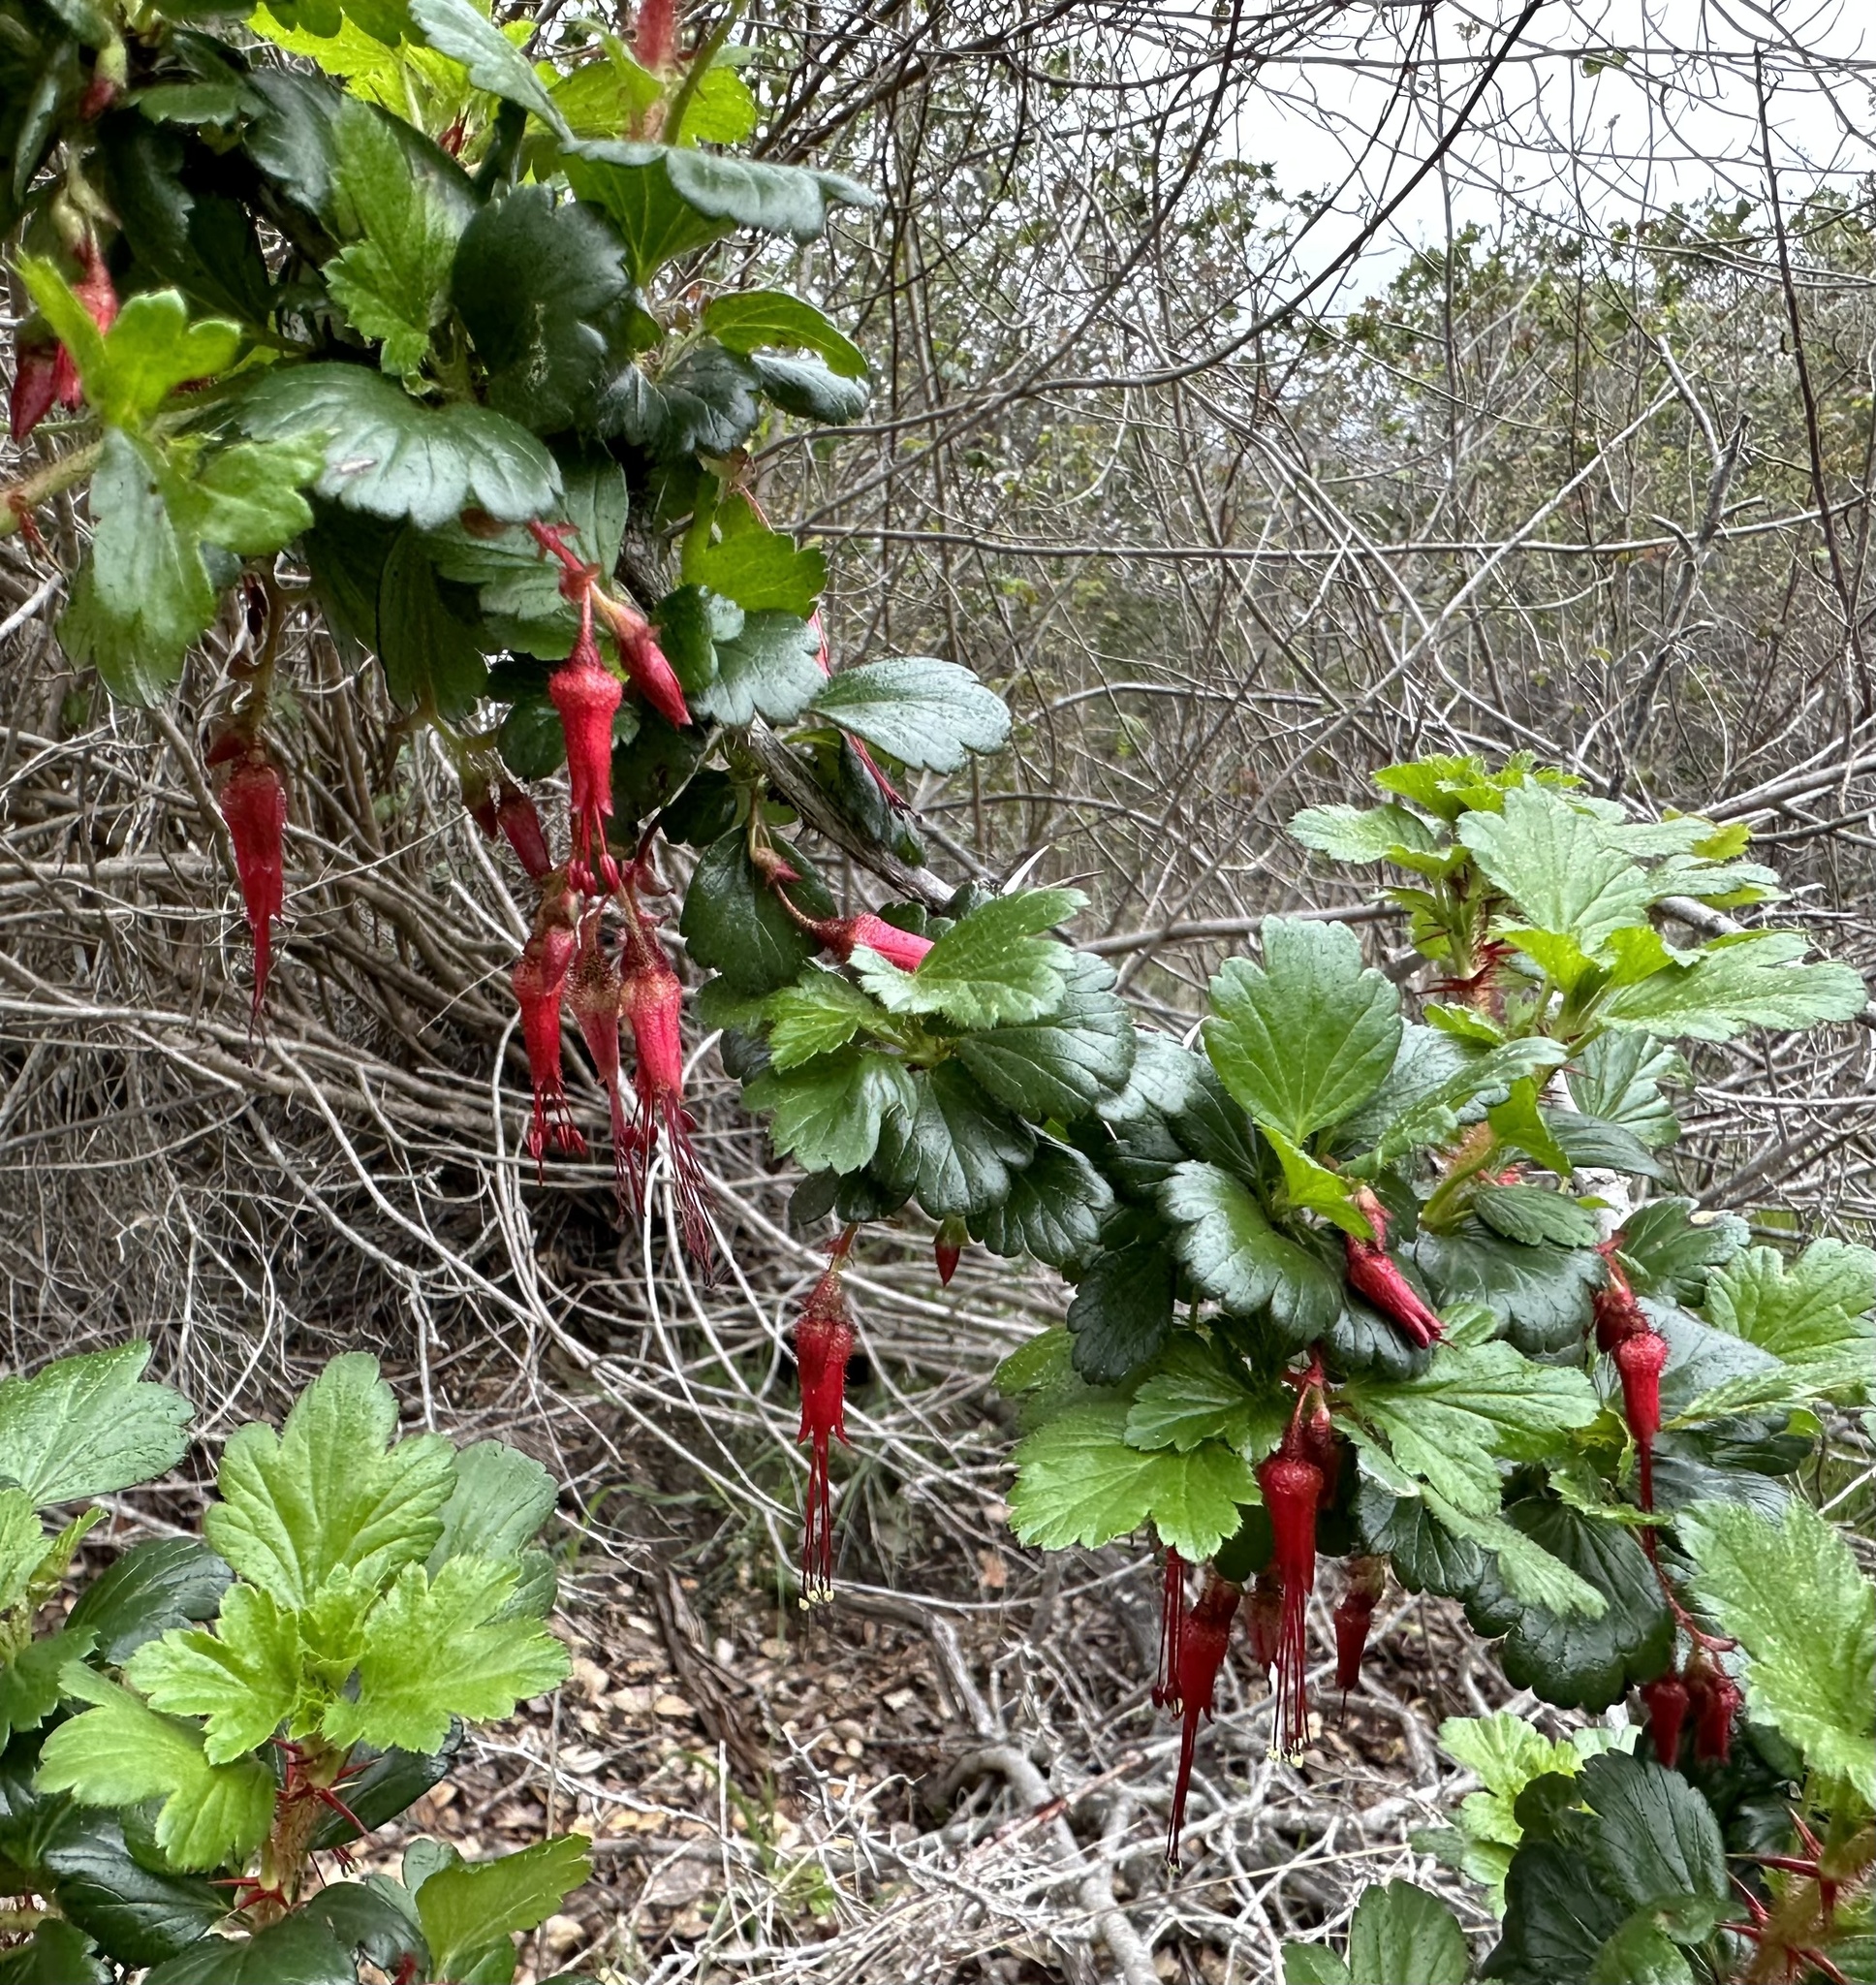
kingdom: Plantae
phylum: Tracheophyta
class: Magnoliopsida
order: Saxifragales
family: Grossulariaceae
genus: Ribes
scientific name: Ribes speciosum
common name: Fuchsia-flower gooseberry
